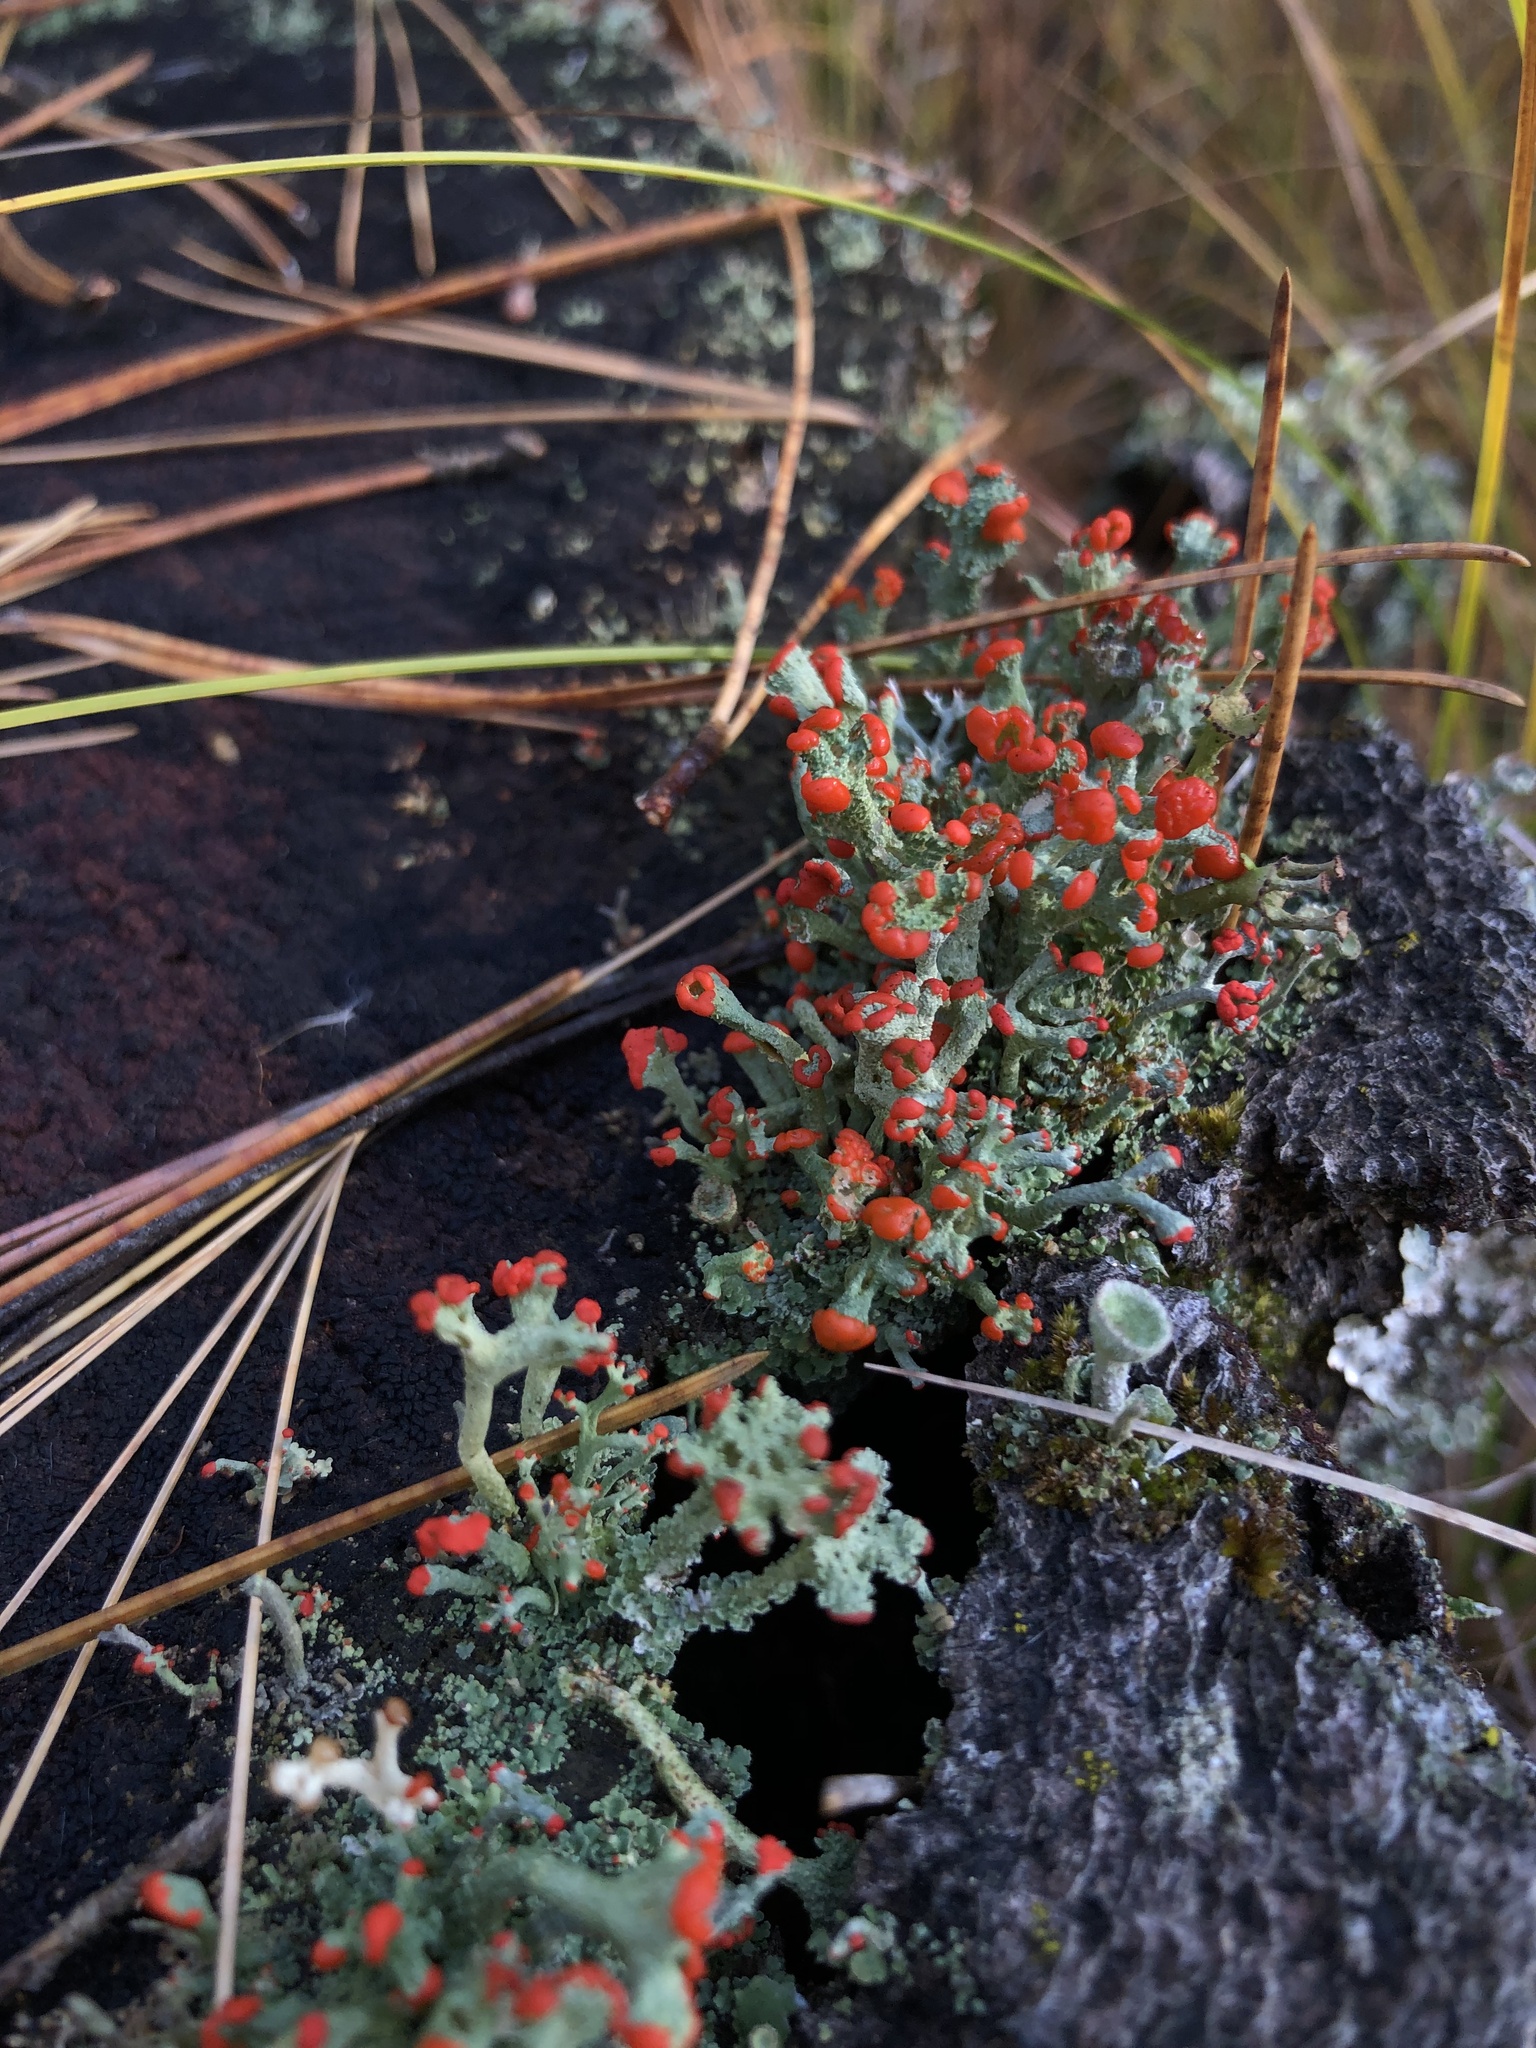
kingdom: Fungi
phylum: Ascomycota
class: Lecanoromycetes
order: Lecanorales
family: Cladoniaceae
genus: Cladonia
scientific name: Cladonia cristatella
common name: British soldier lichen
